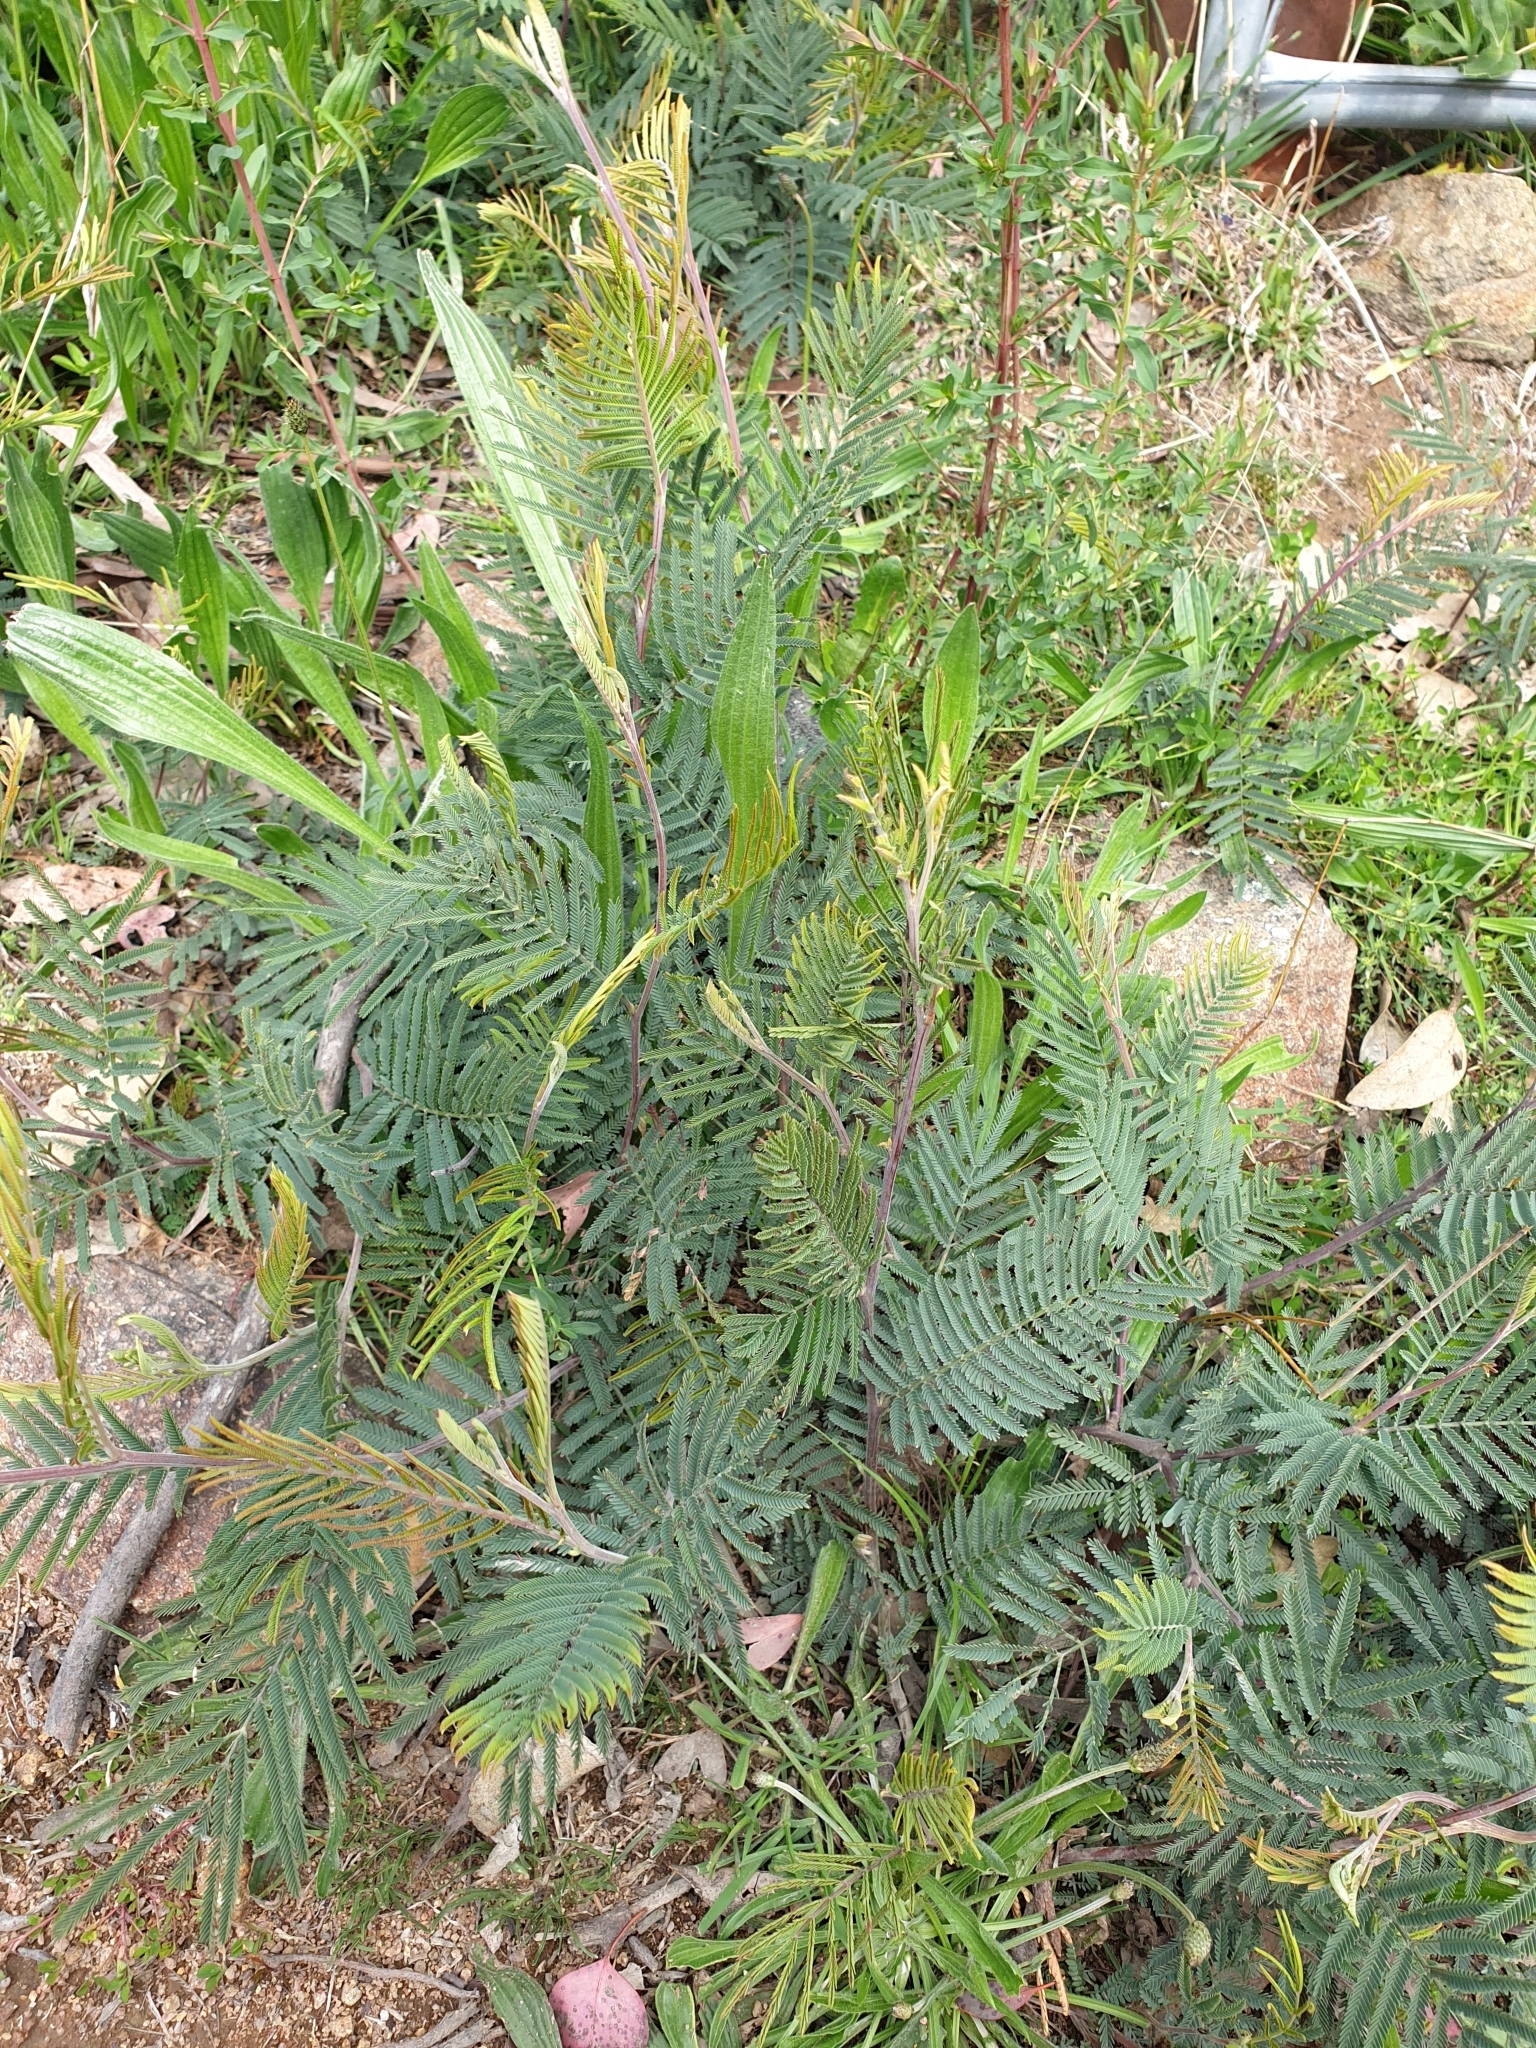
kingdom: Plantae
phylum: Tracheophyta
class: Magnoliopsida
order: Fabales
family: Fabaceae
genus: Acacia
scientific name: Acacia dealbata
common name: Silver wattle
